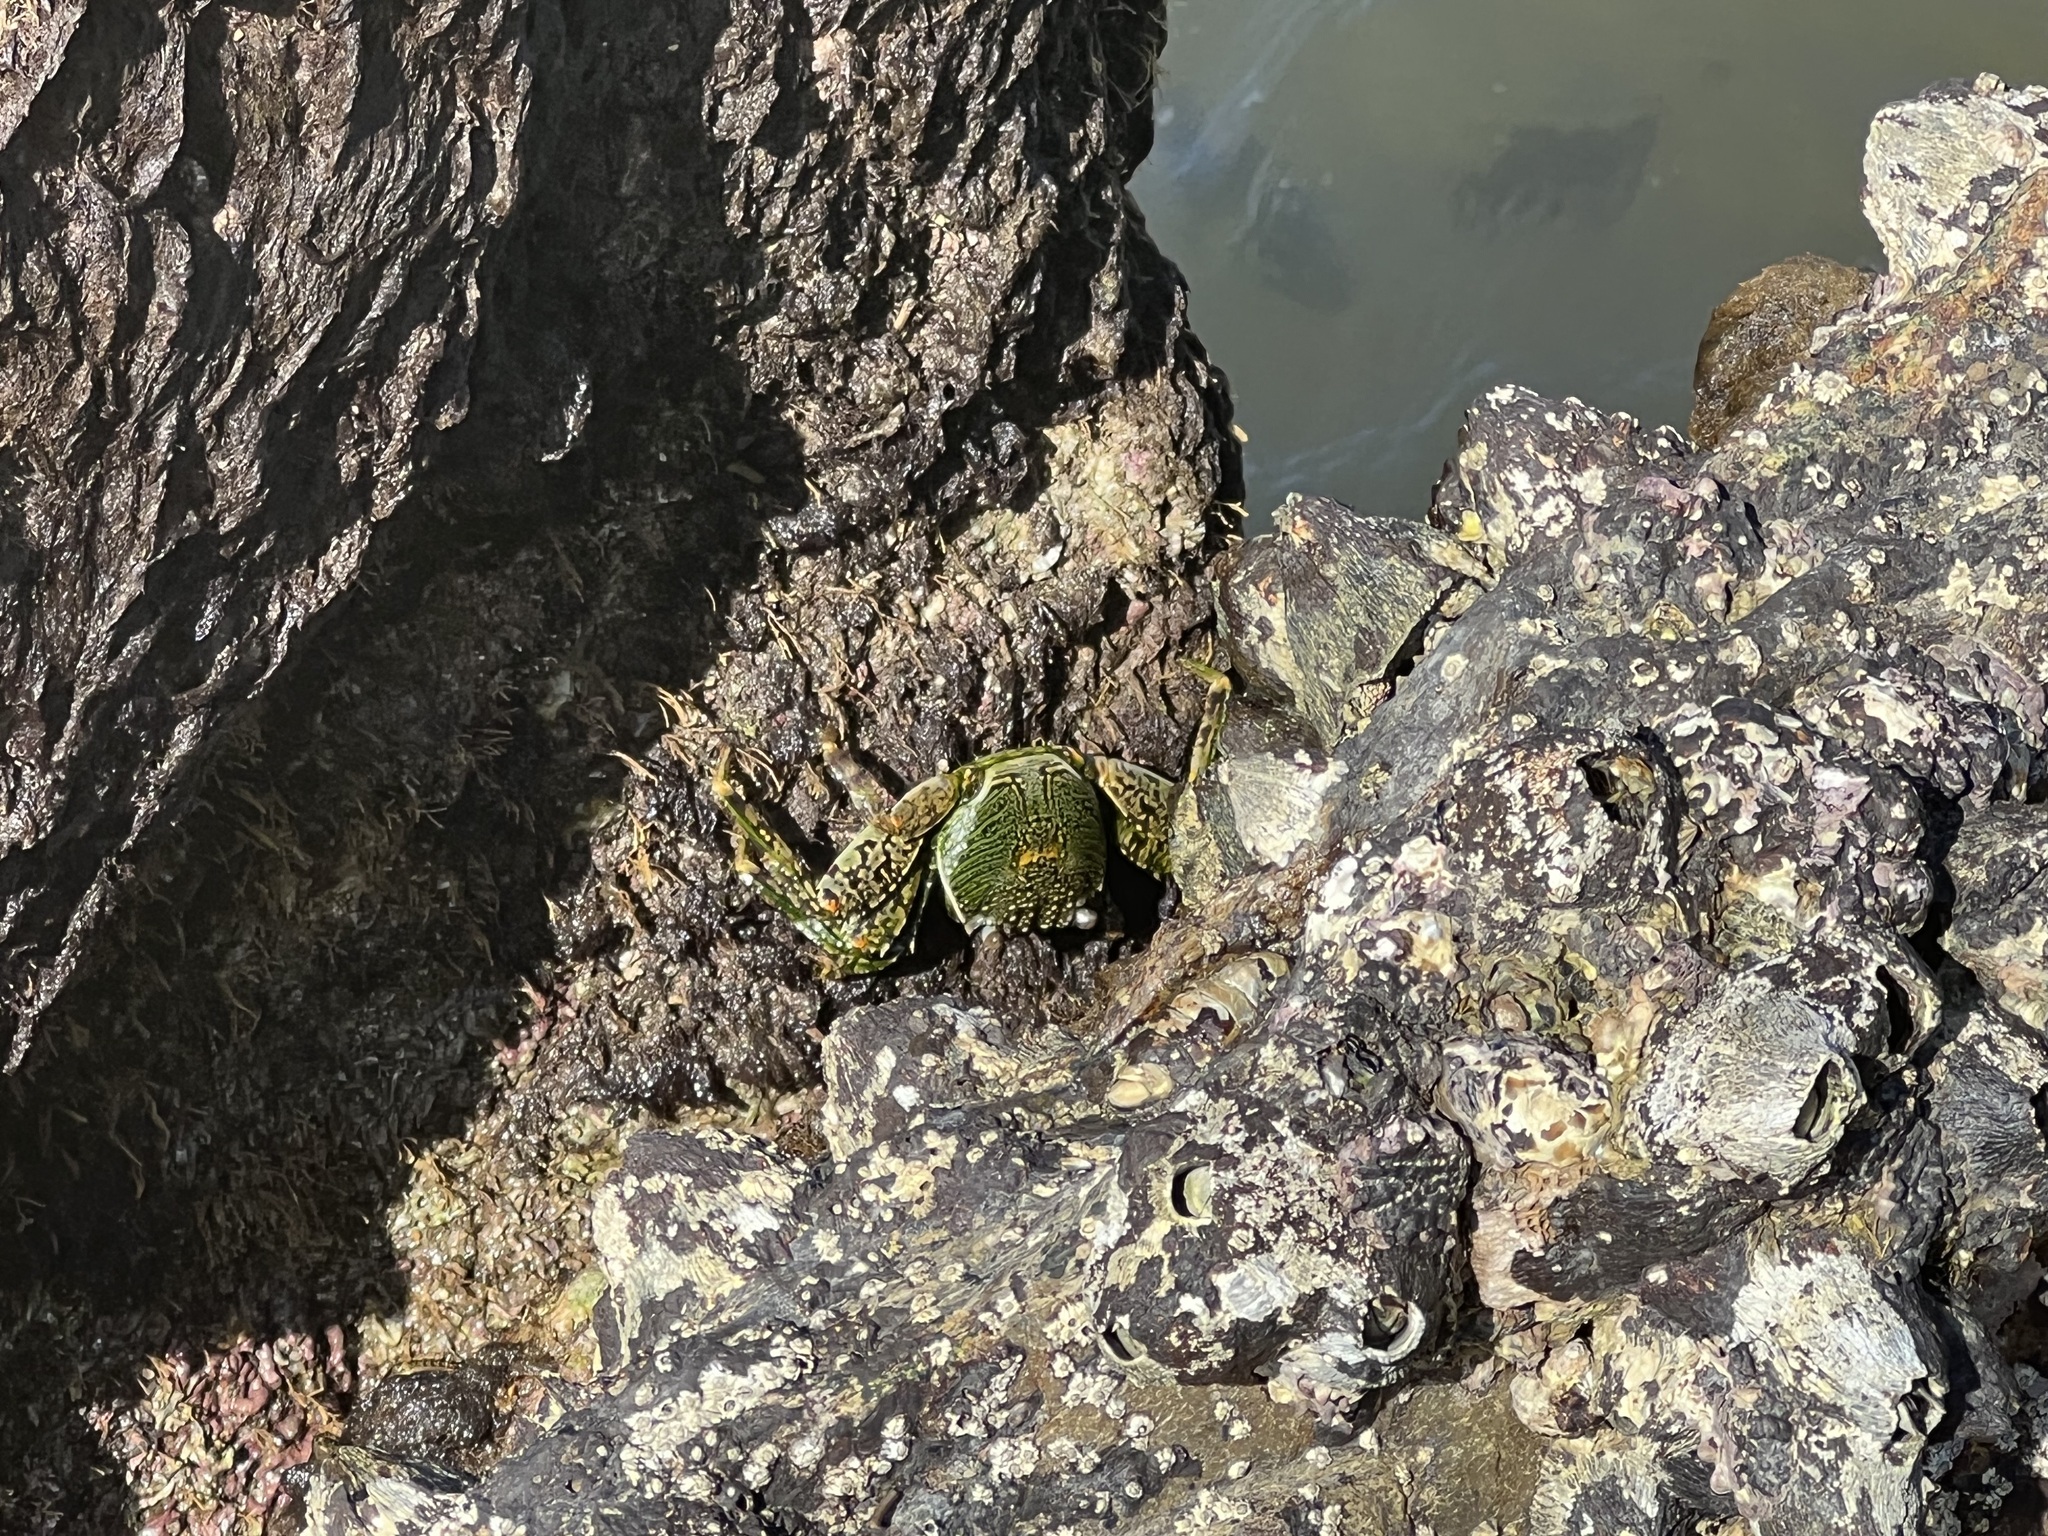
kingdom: Animalia
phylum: Arthropoda
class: Malacostraca
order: Decapoda
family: Grapsidae
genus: Grapsus
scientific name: Grapsus albolineatus
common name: Mottled lightfoot crab
